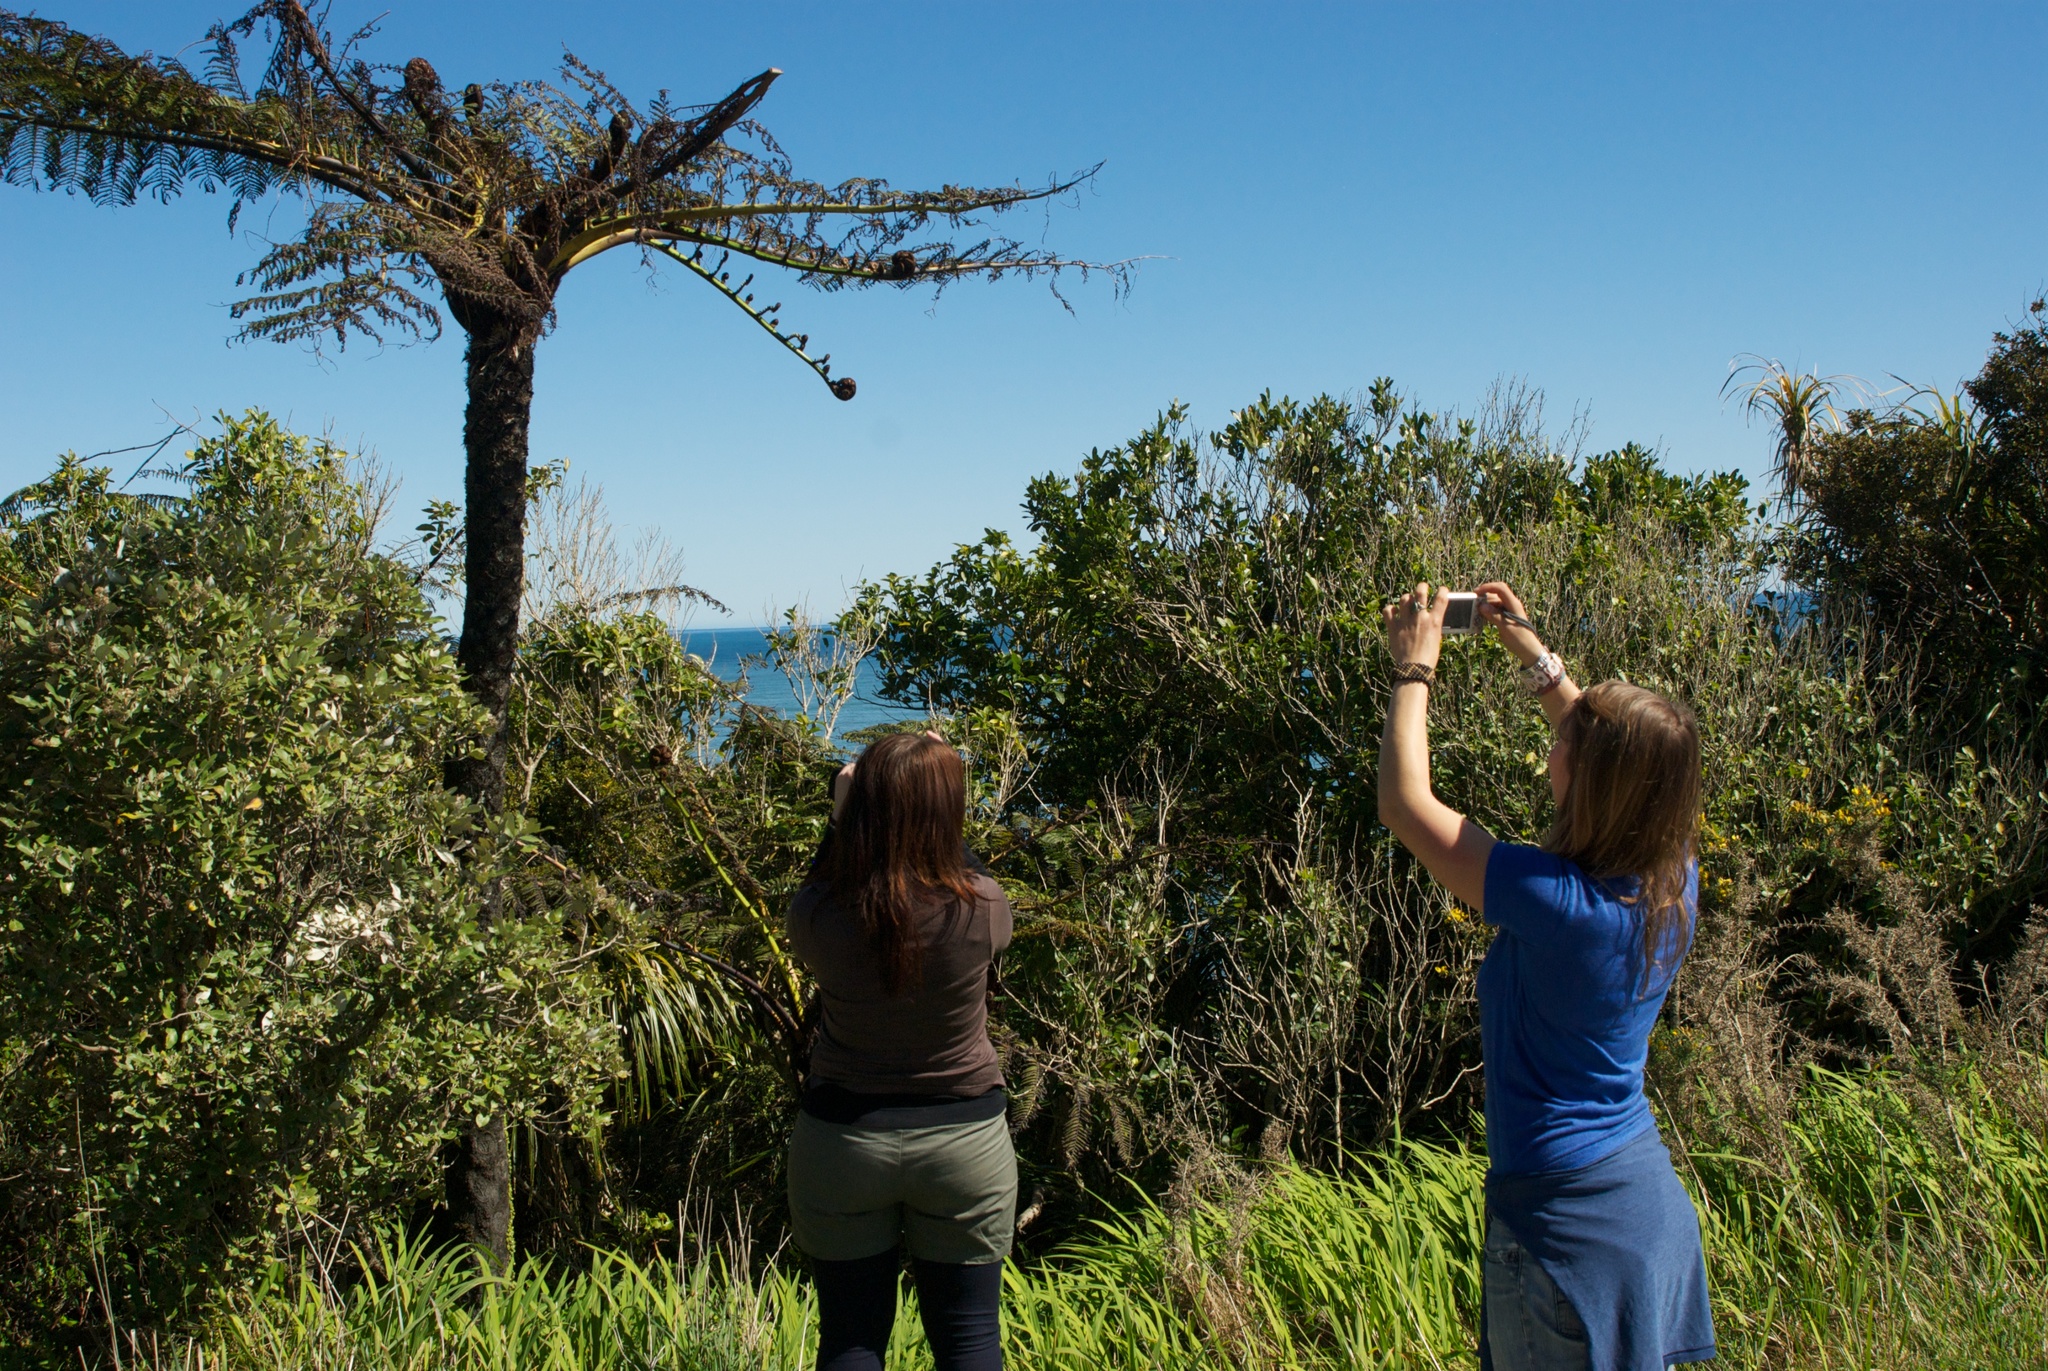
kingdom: Plantae
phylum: Tracheophyta
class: Polypodiopsida
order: Cyatheales
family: Cyatheaceae
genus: Sphaeropteris
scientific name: Sphaeropteris medullaris
